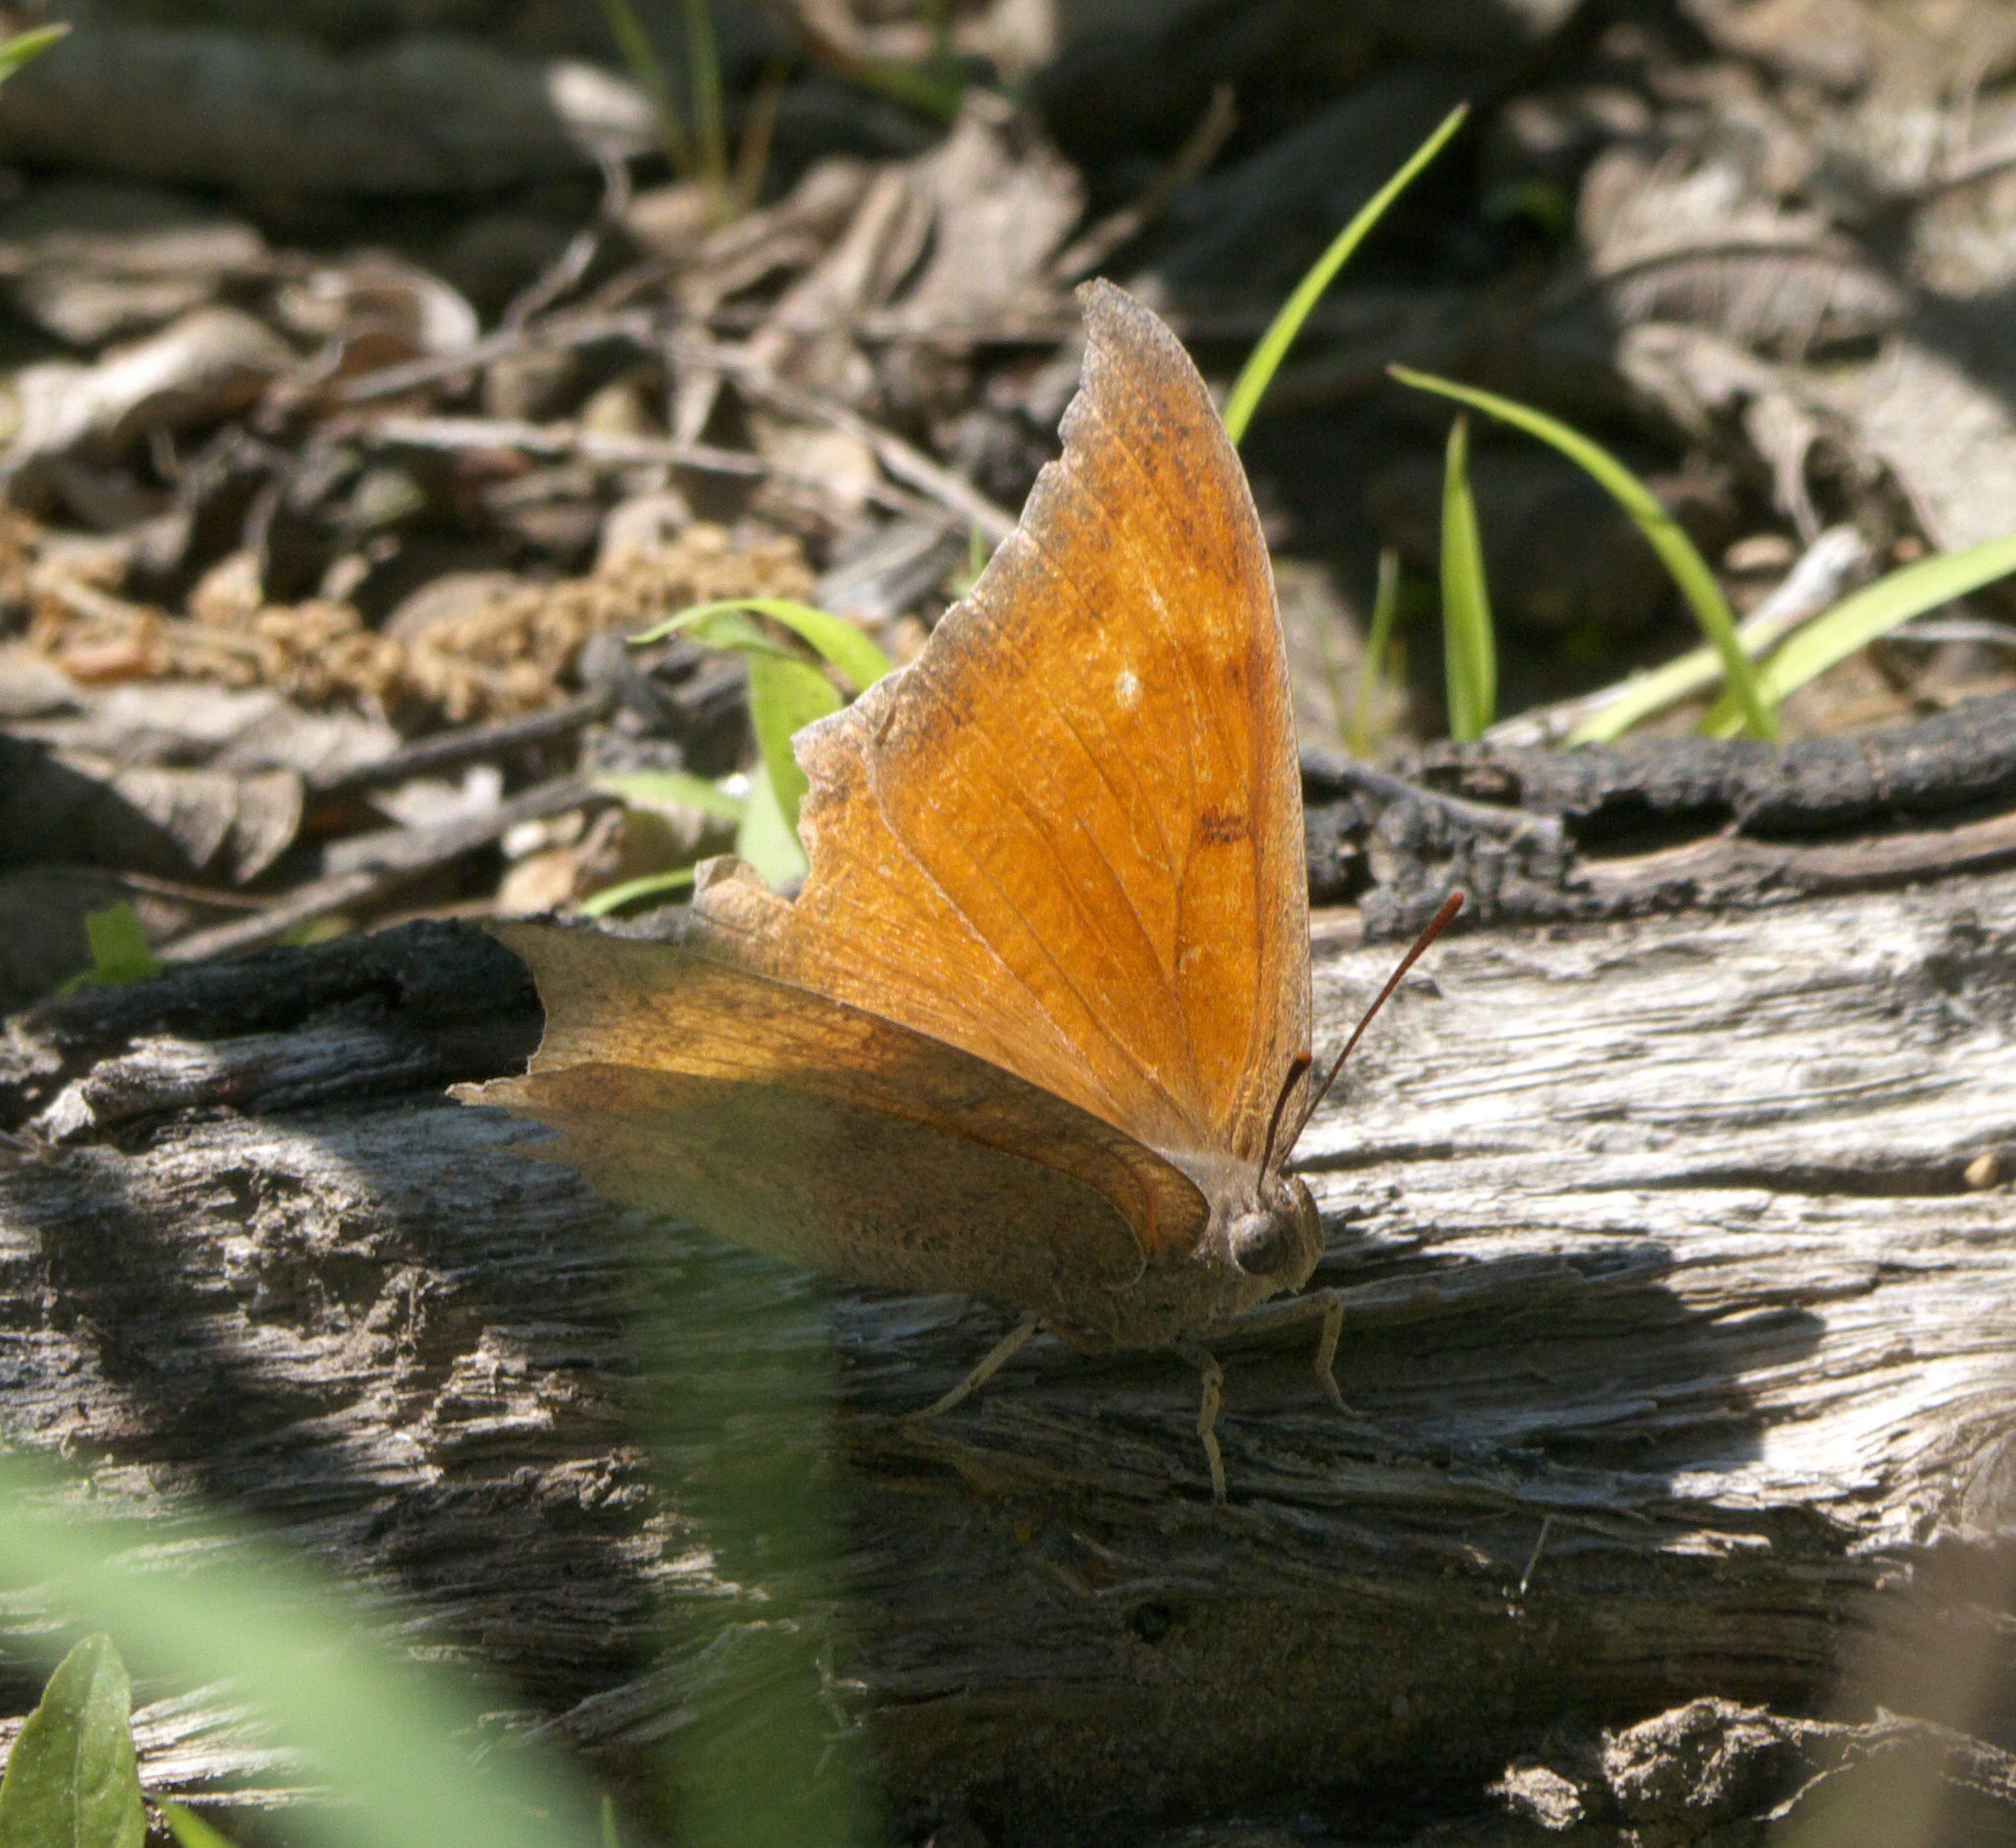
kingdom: Animalia
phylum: Arthropoda
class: Insecta
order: Lepidoptera
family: Nymphalidae
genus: Anaea
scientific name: Anaea andria
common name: Goatweed leafwing
